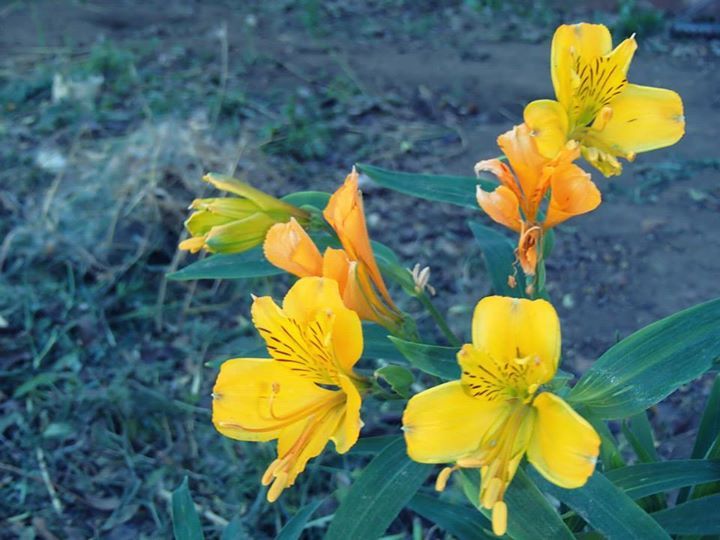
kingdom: Plantae
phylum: Tracheophyta
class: Liliopsida
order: Liliales
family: Alstroemeriaceae
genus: Alstroemeria
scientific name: Alstroemeria aurea
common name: Peruvian lily
